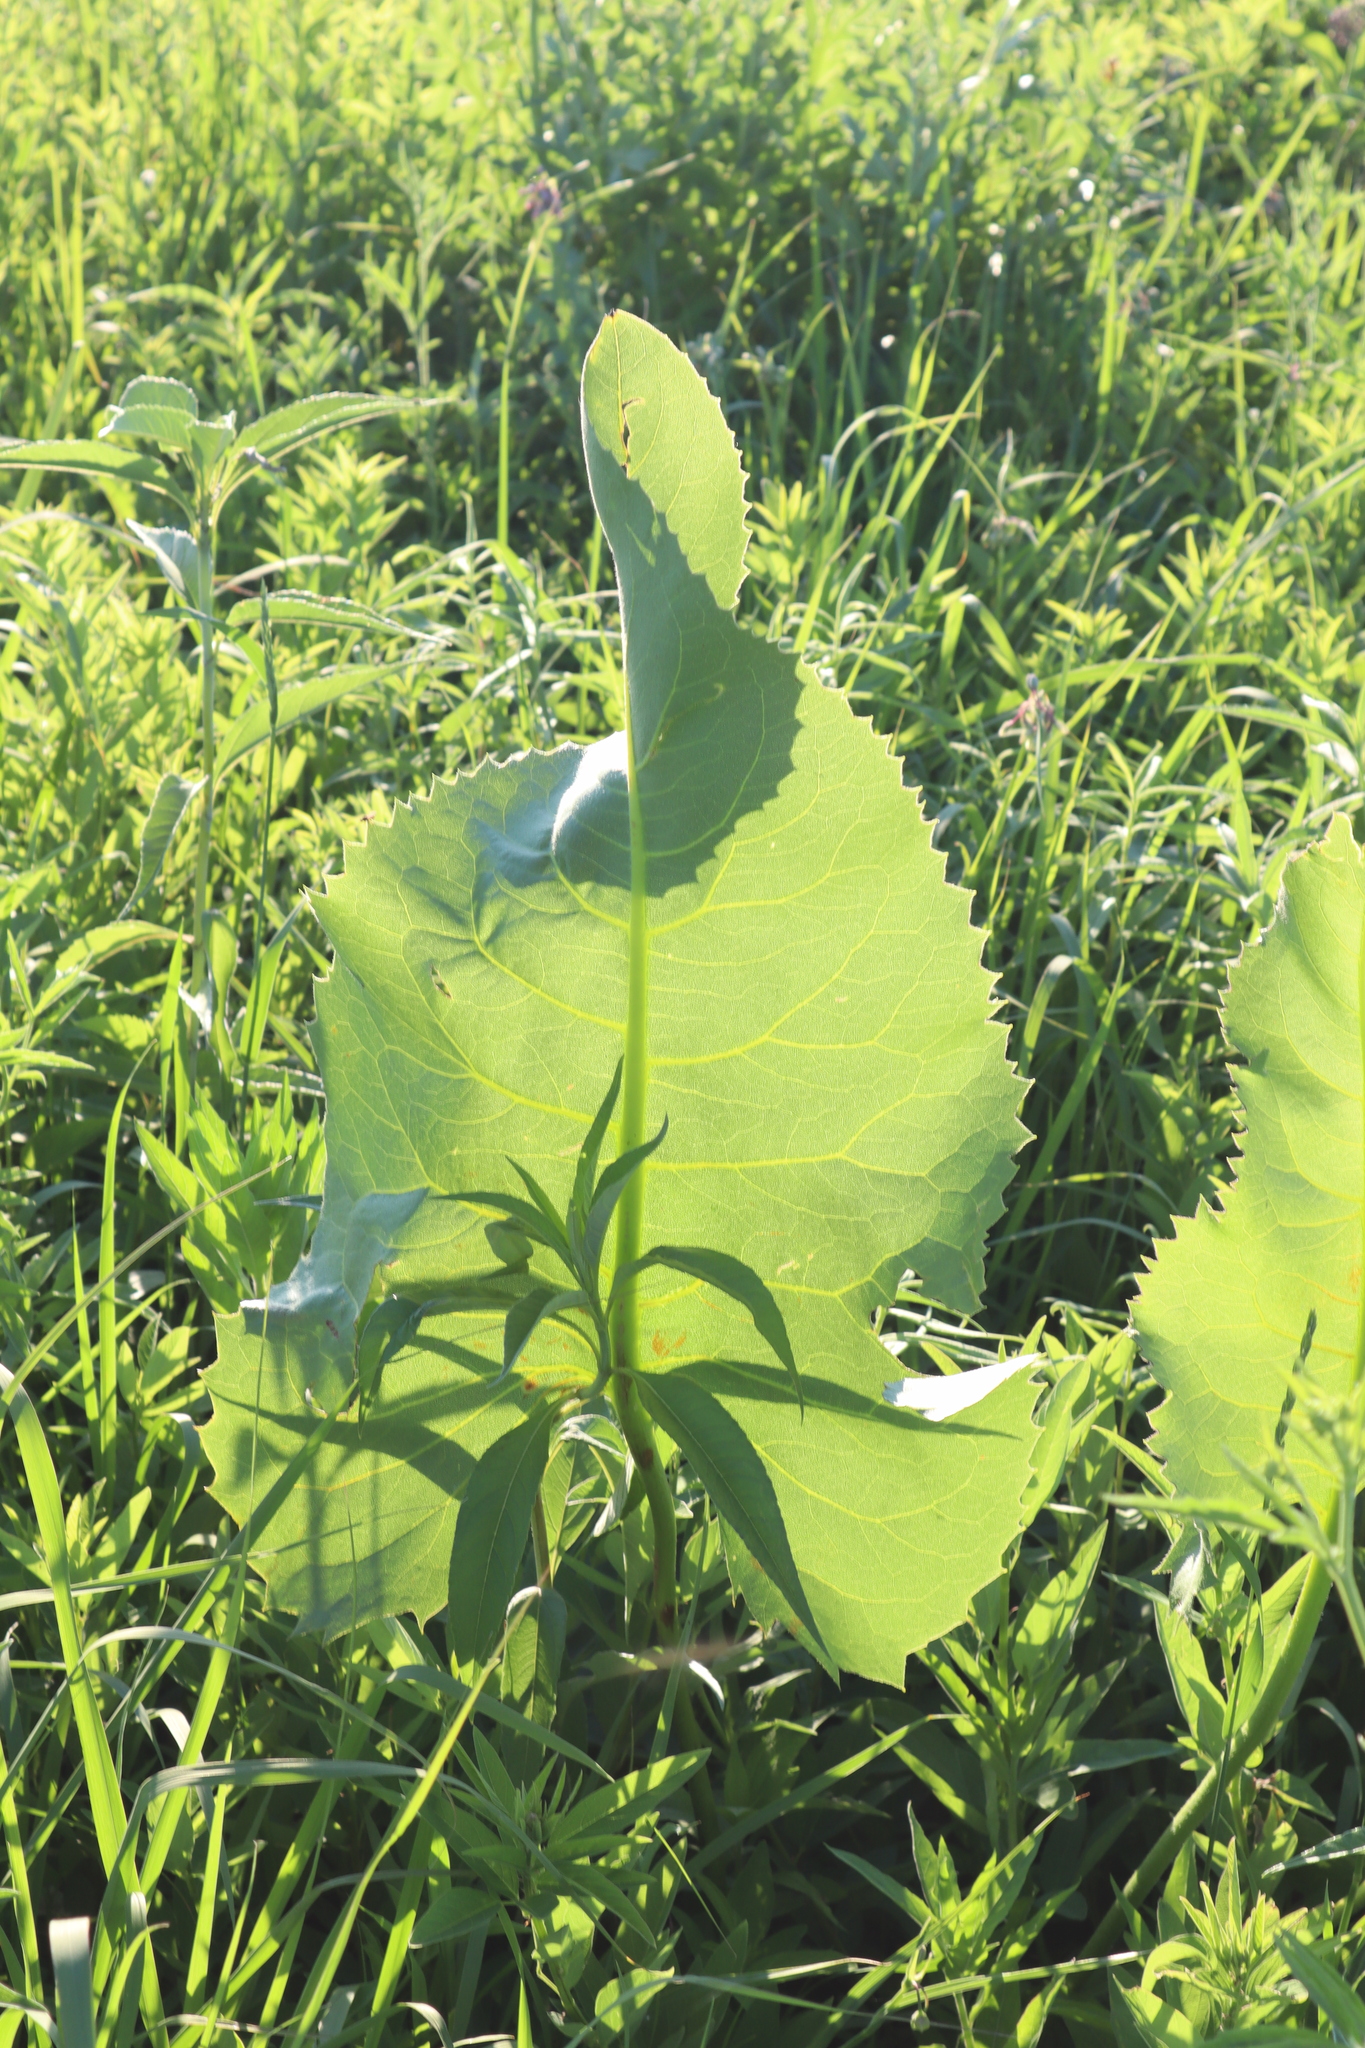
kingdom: Plantae
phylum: Tracheophyta
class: Magnoliopsida
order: Asterales
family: Asteraceae
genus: Silphium
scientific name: Silphium terebinthinaceum
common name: Basal-leaf rosinweed
